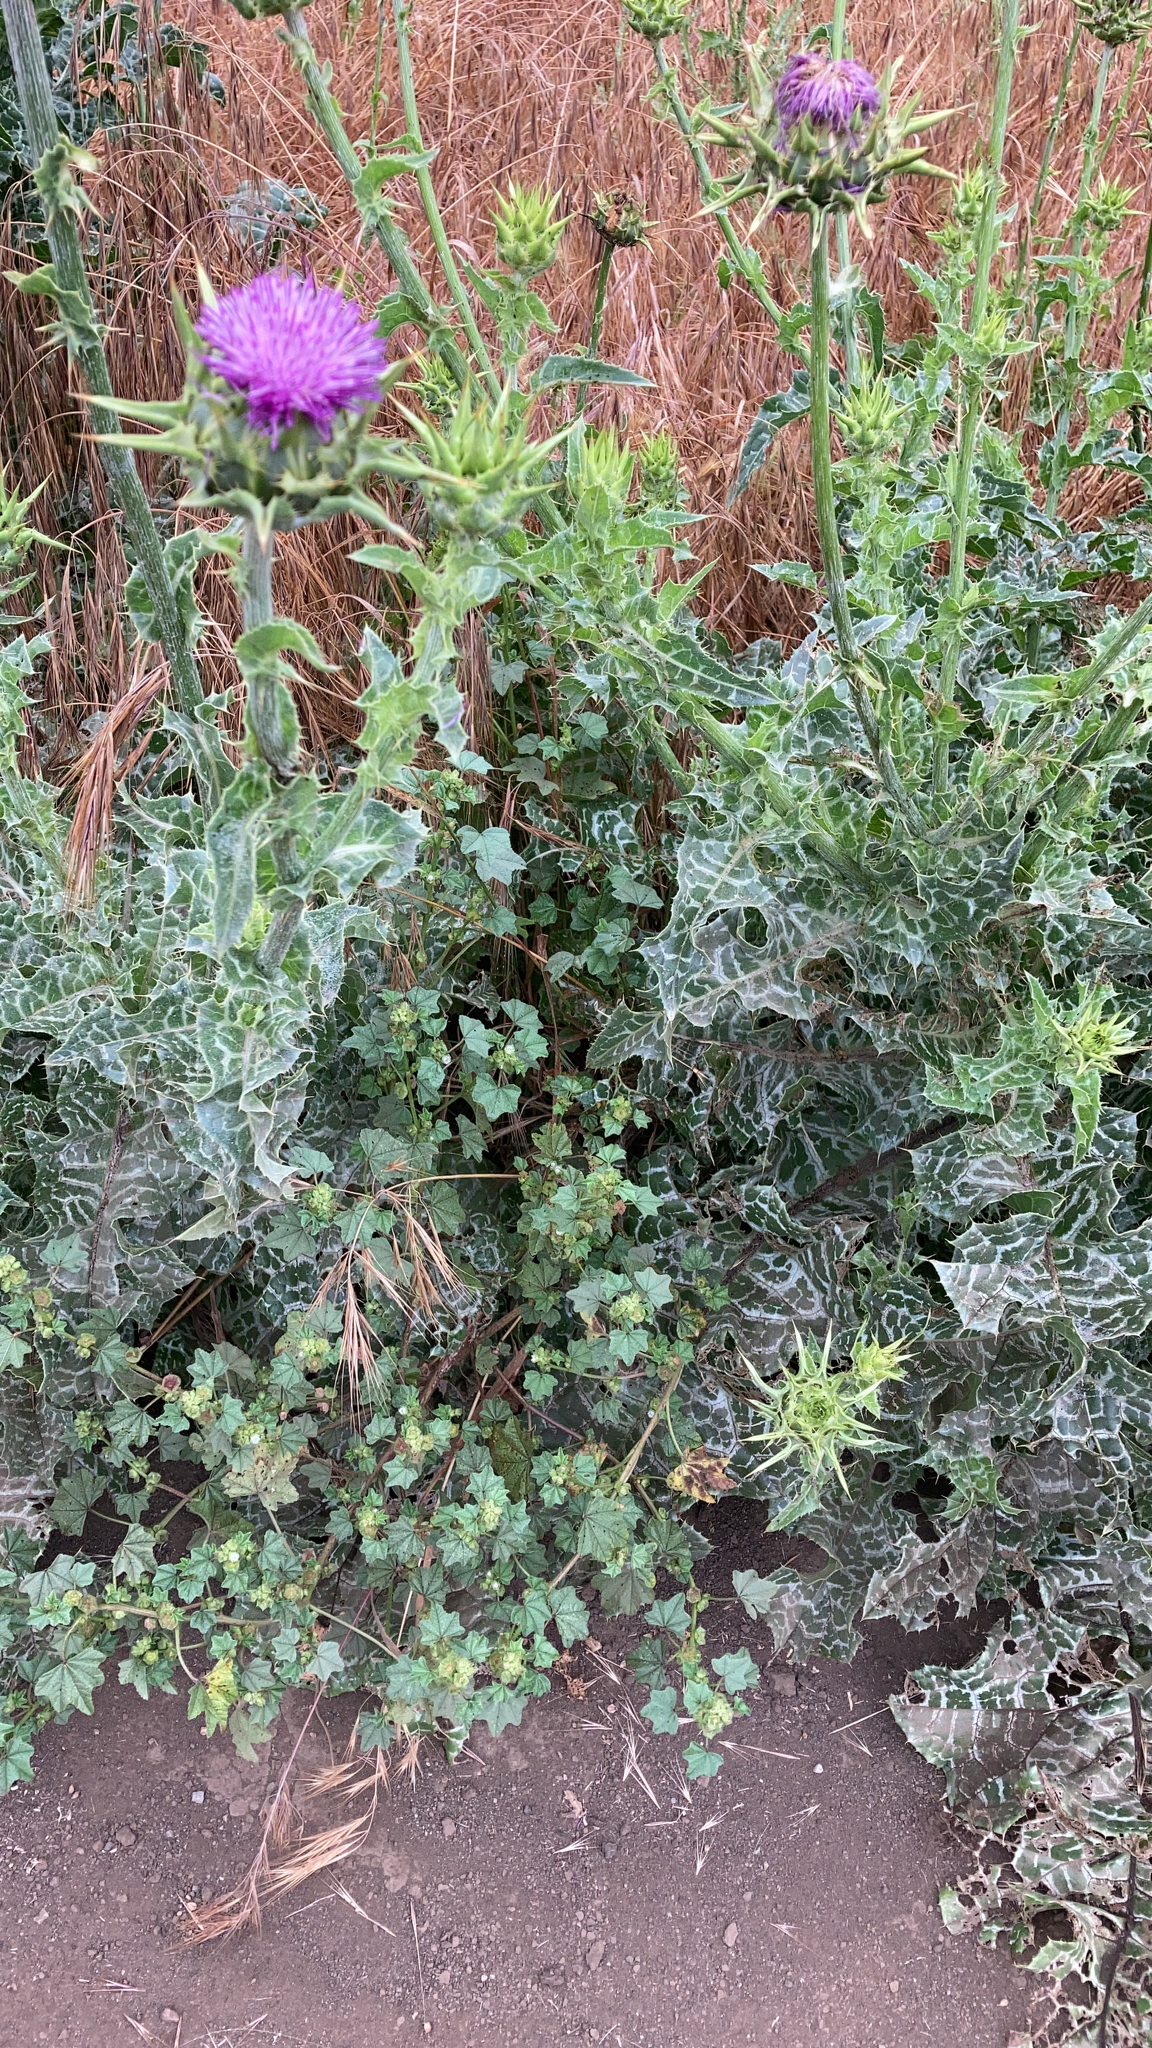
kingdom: Plantae
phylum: Tracheophyta
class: Magnoliopsida
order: Asterales
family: Asteraceae
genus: Silybum
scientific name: Silybum marianum
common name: Milk thistle
